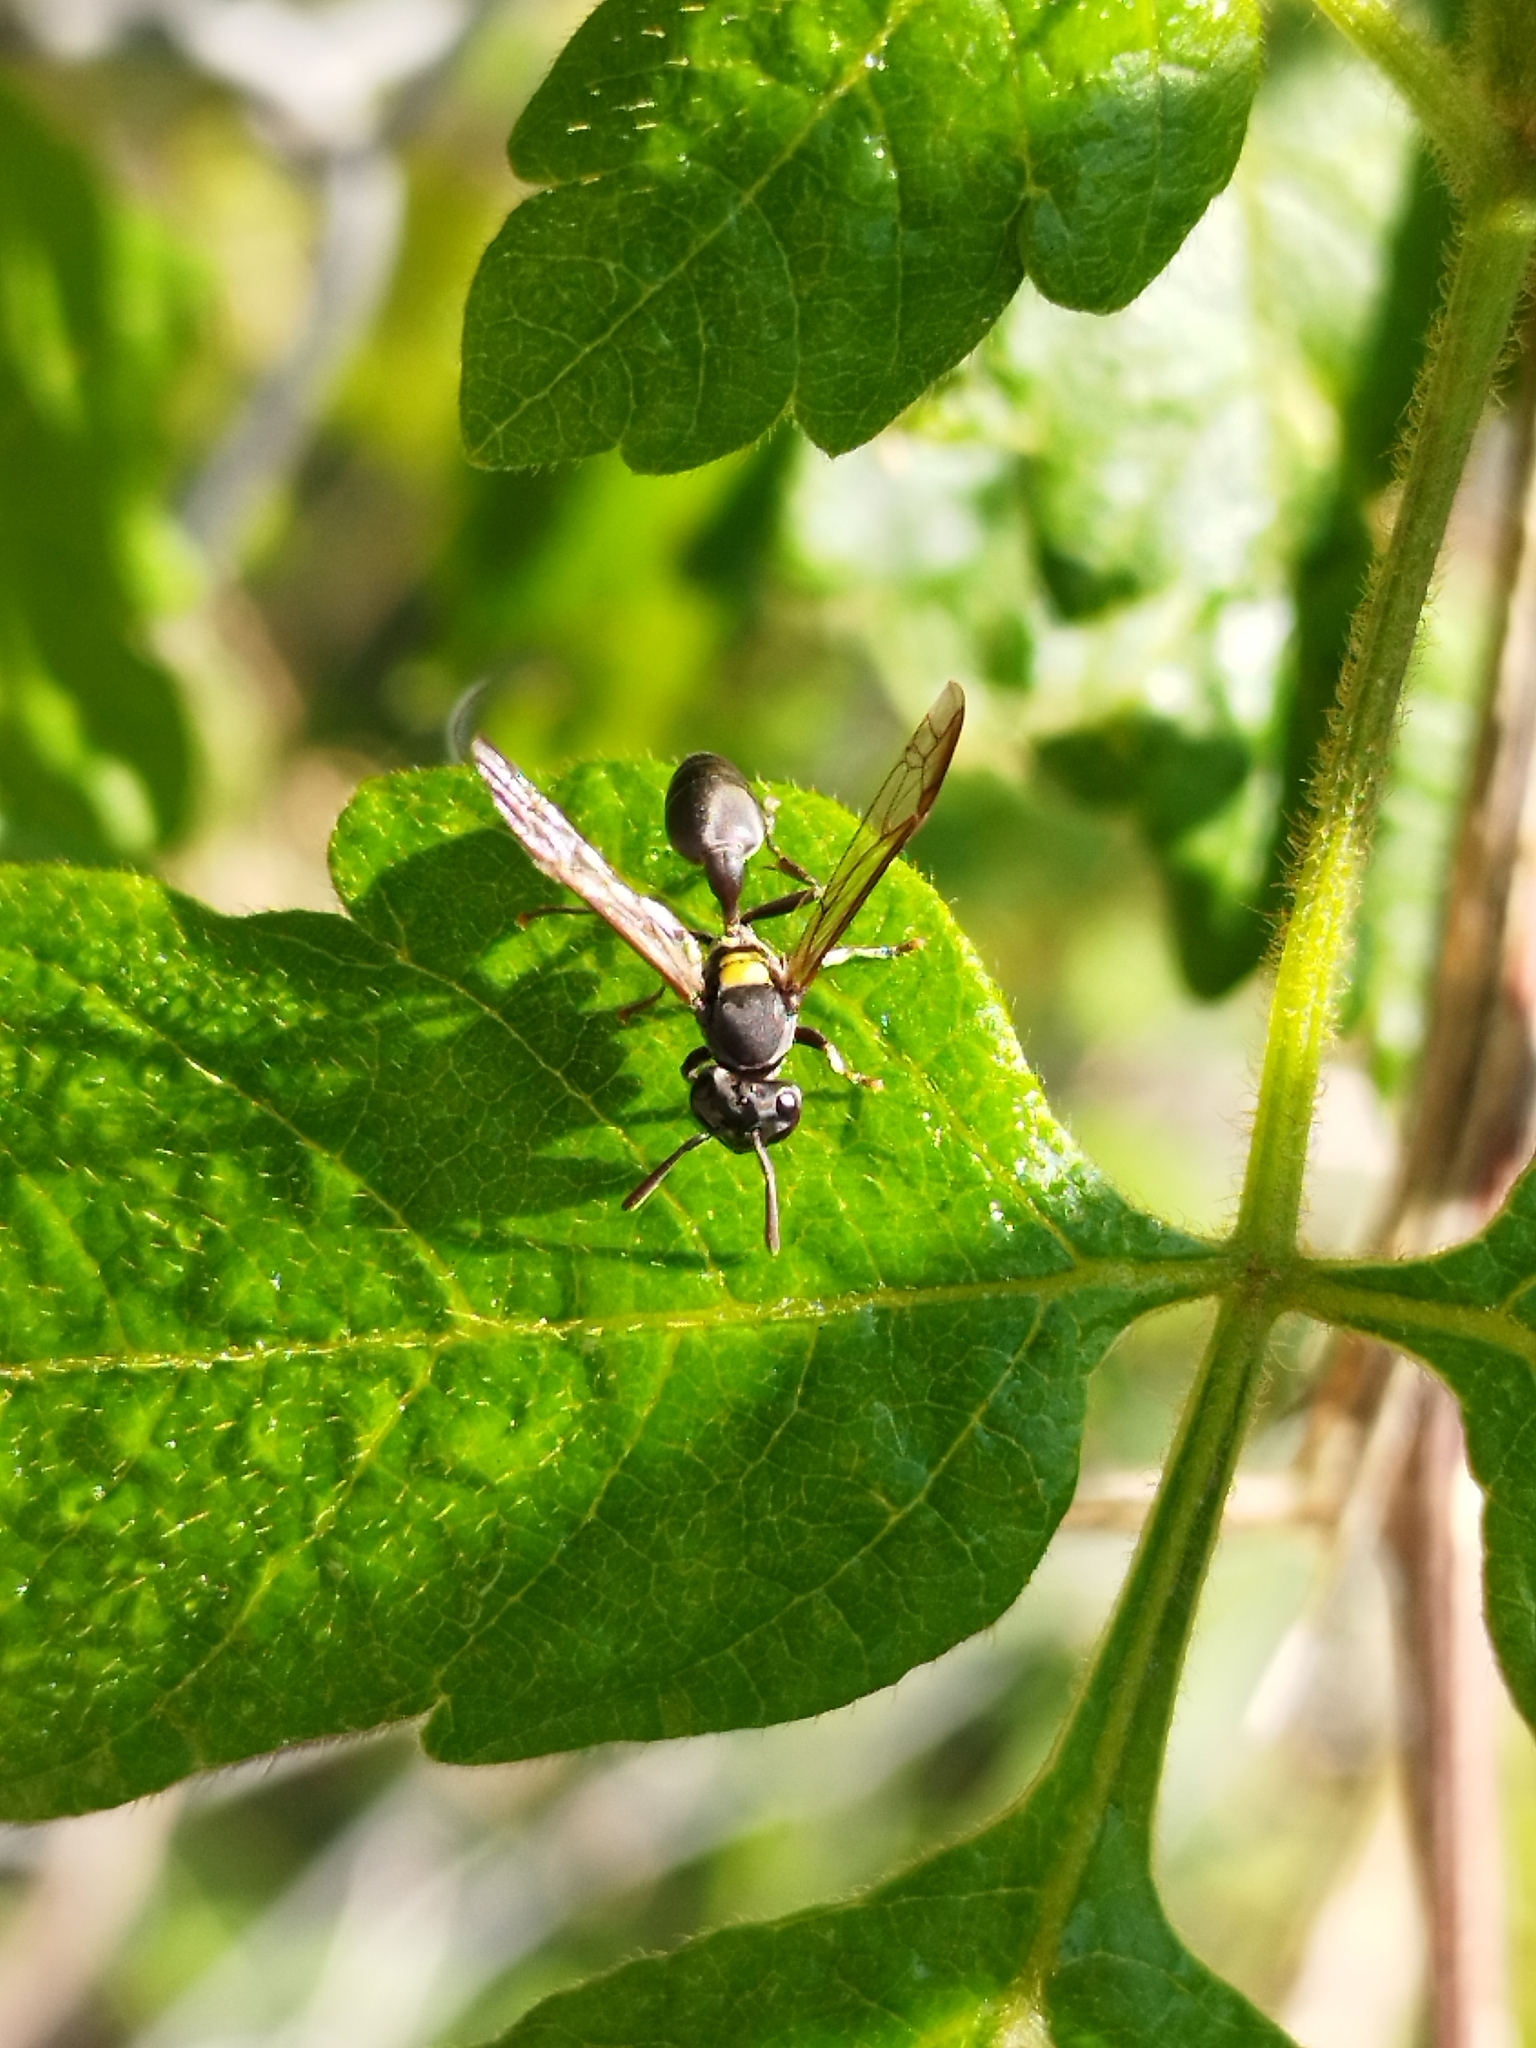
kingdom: Animalia
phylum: Arthropoda
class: Insecta
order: Hymenoptera
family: Eumenidae
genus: Polybia
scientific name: Polybia scutellaris
